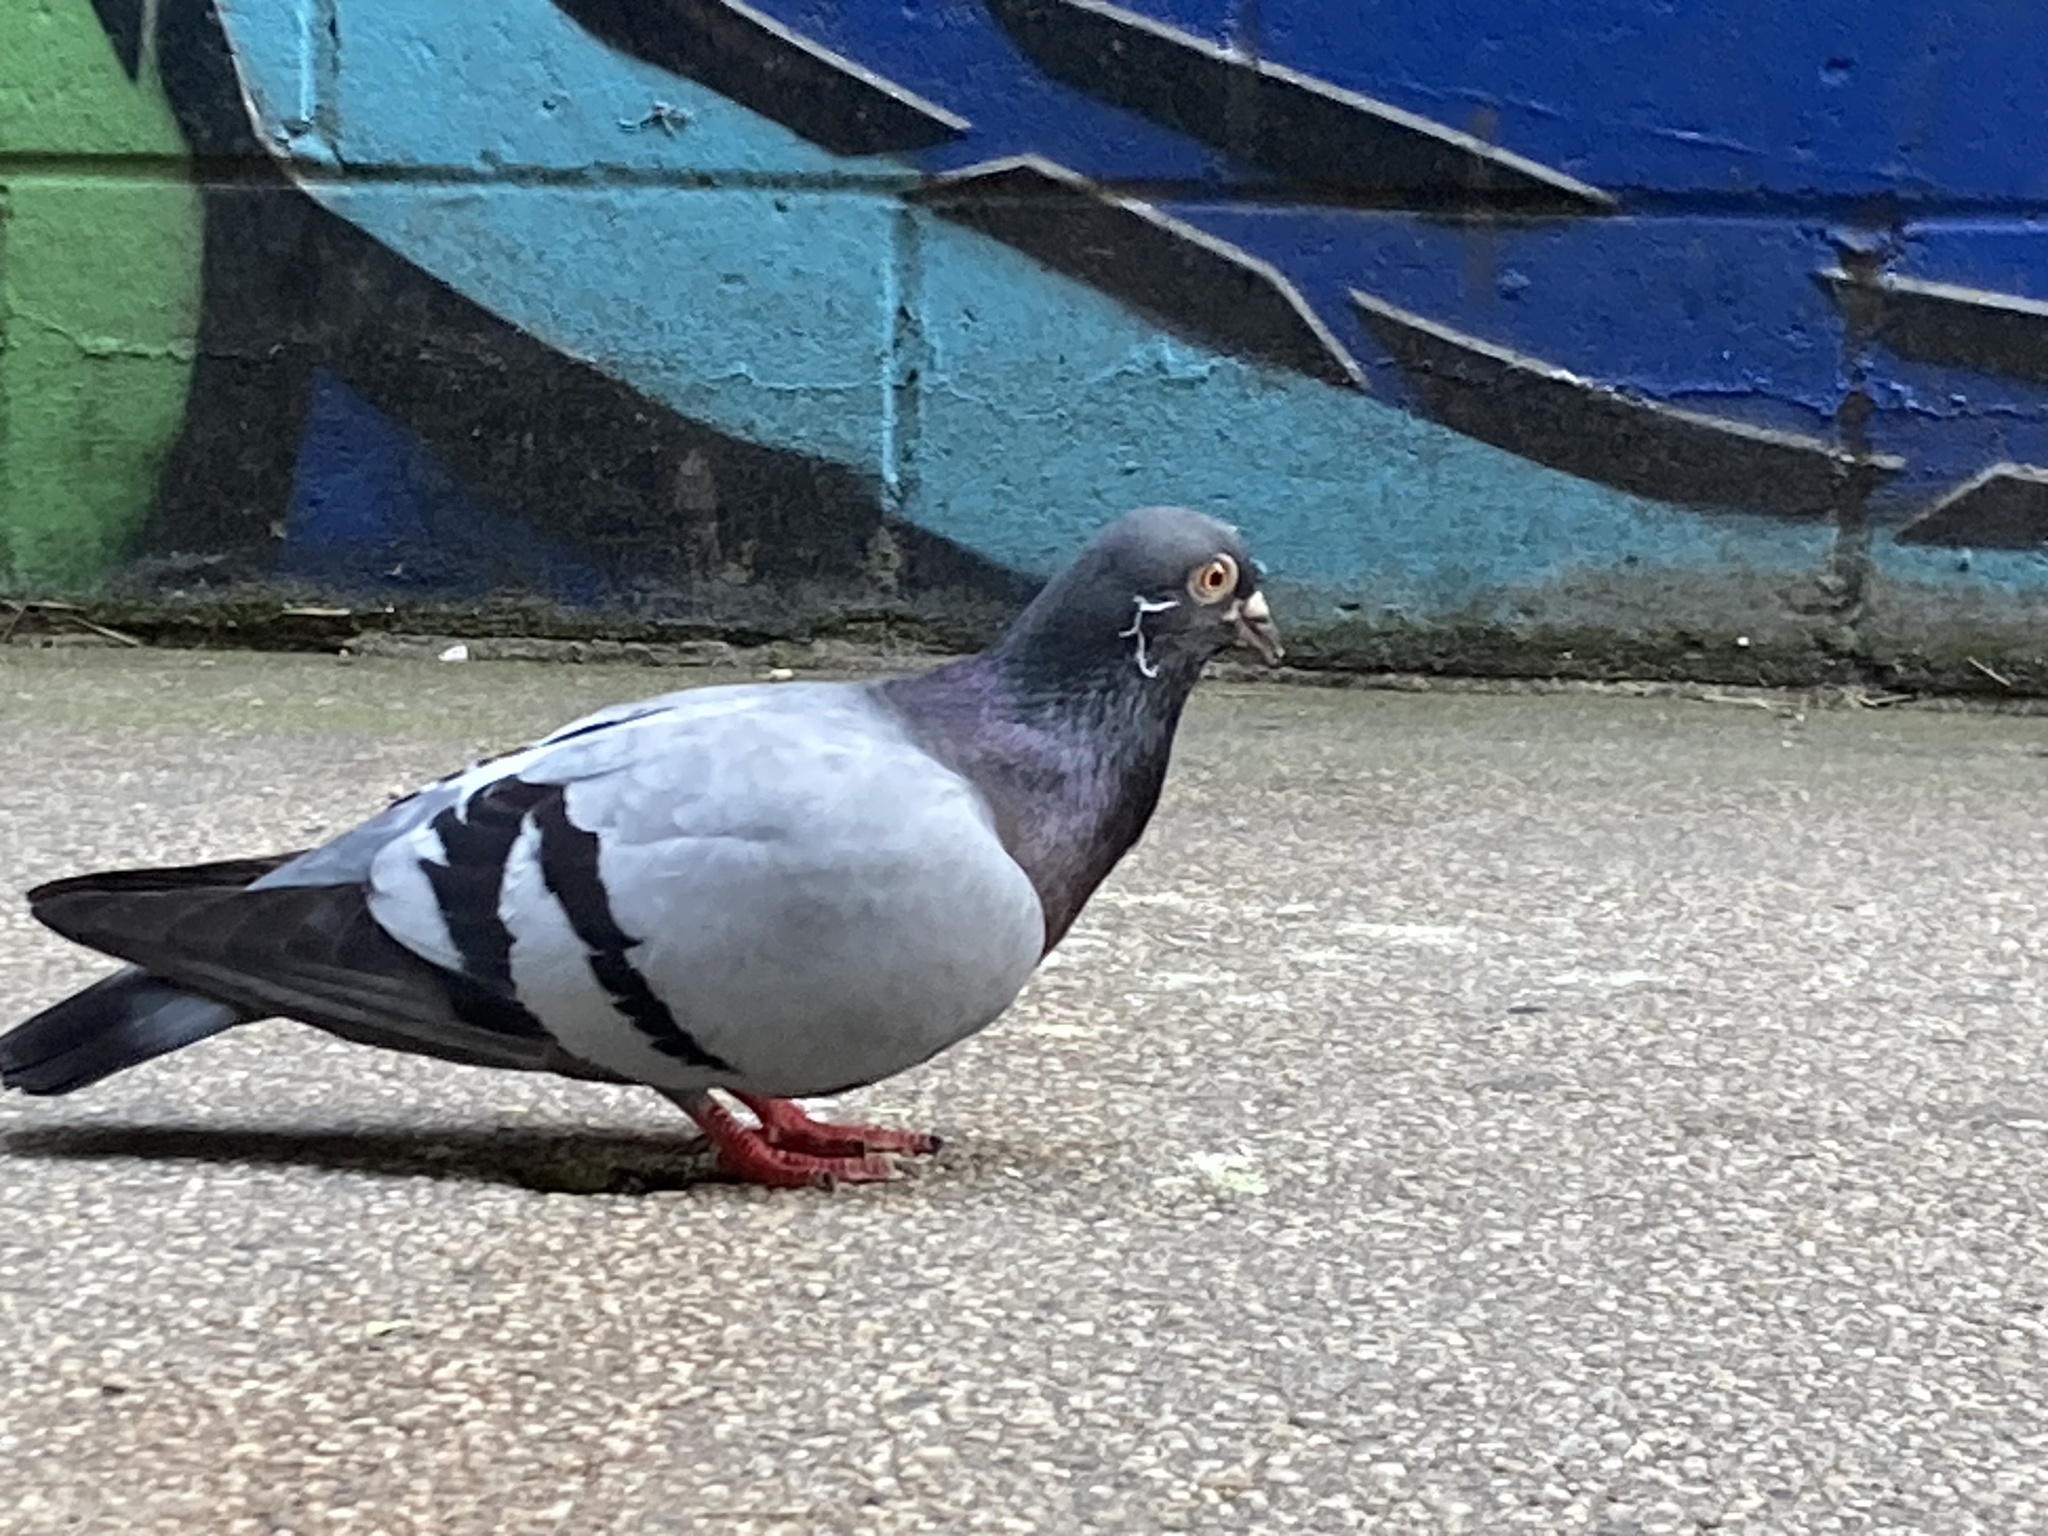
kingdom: Animalia
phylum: Chordata
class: Aves
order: Columbiformes
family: Columbidae
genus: Columba
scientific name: Columba livia
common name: Rock pigeon
